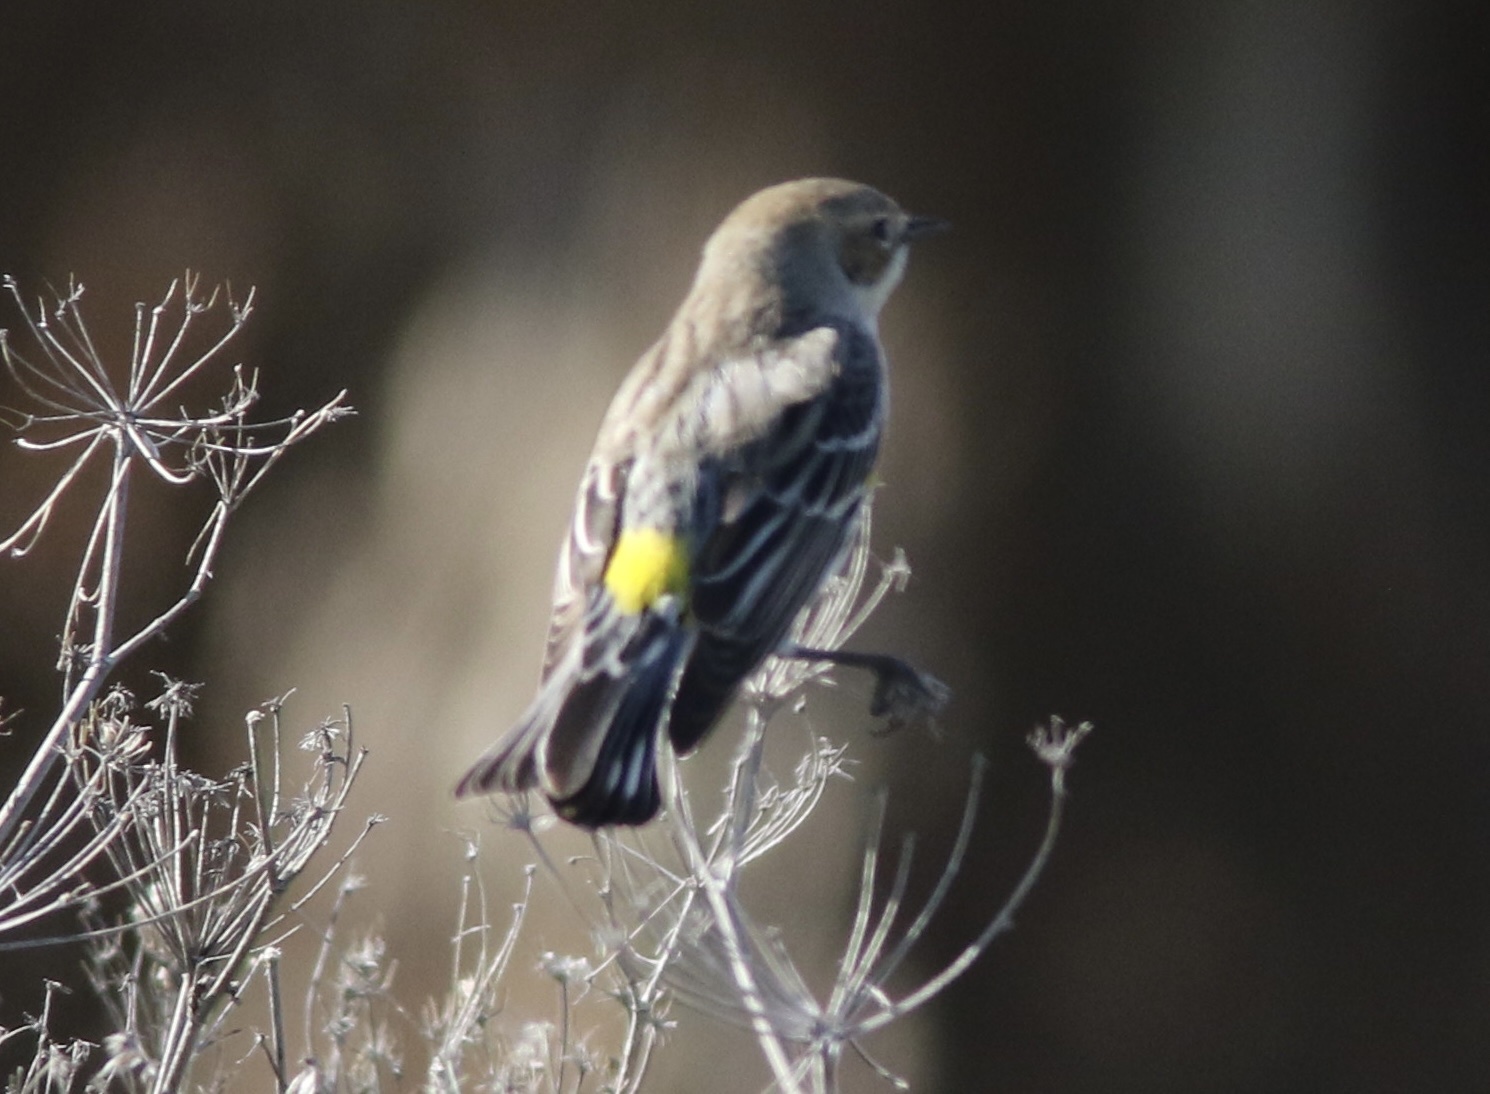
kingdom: Animalia
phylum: Chordata
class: Aves
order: Passeriformes
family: Parulidae
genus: Setophaga
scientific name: Setophaga coronata
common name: Myrtle warbler
